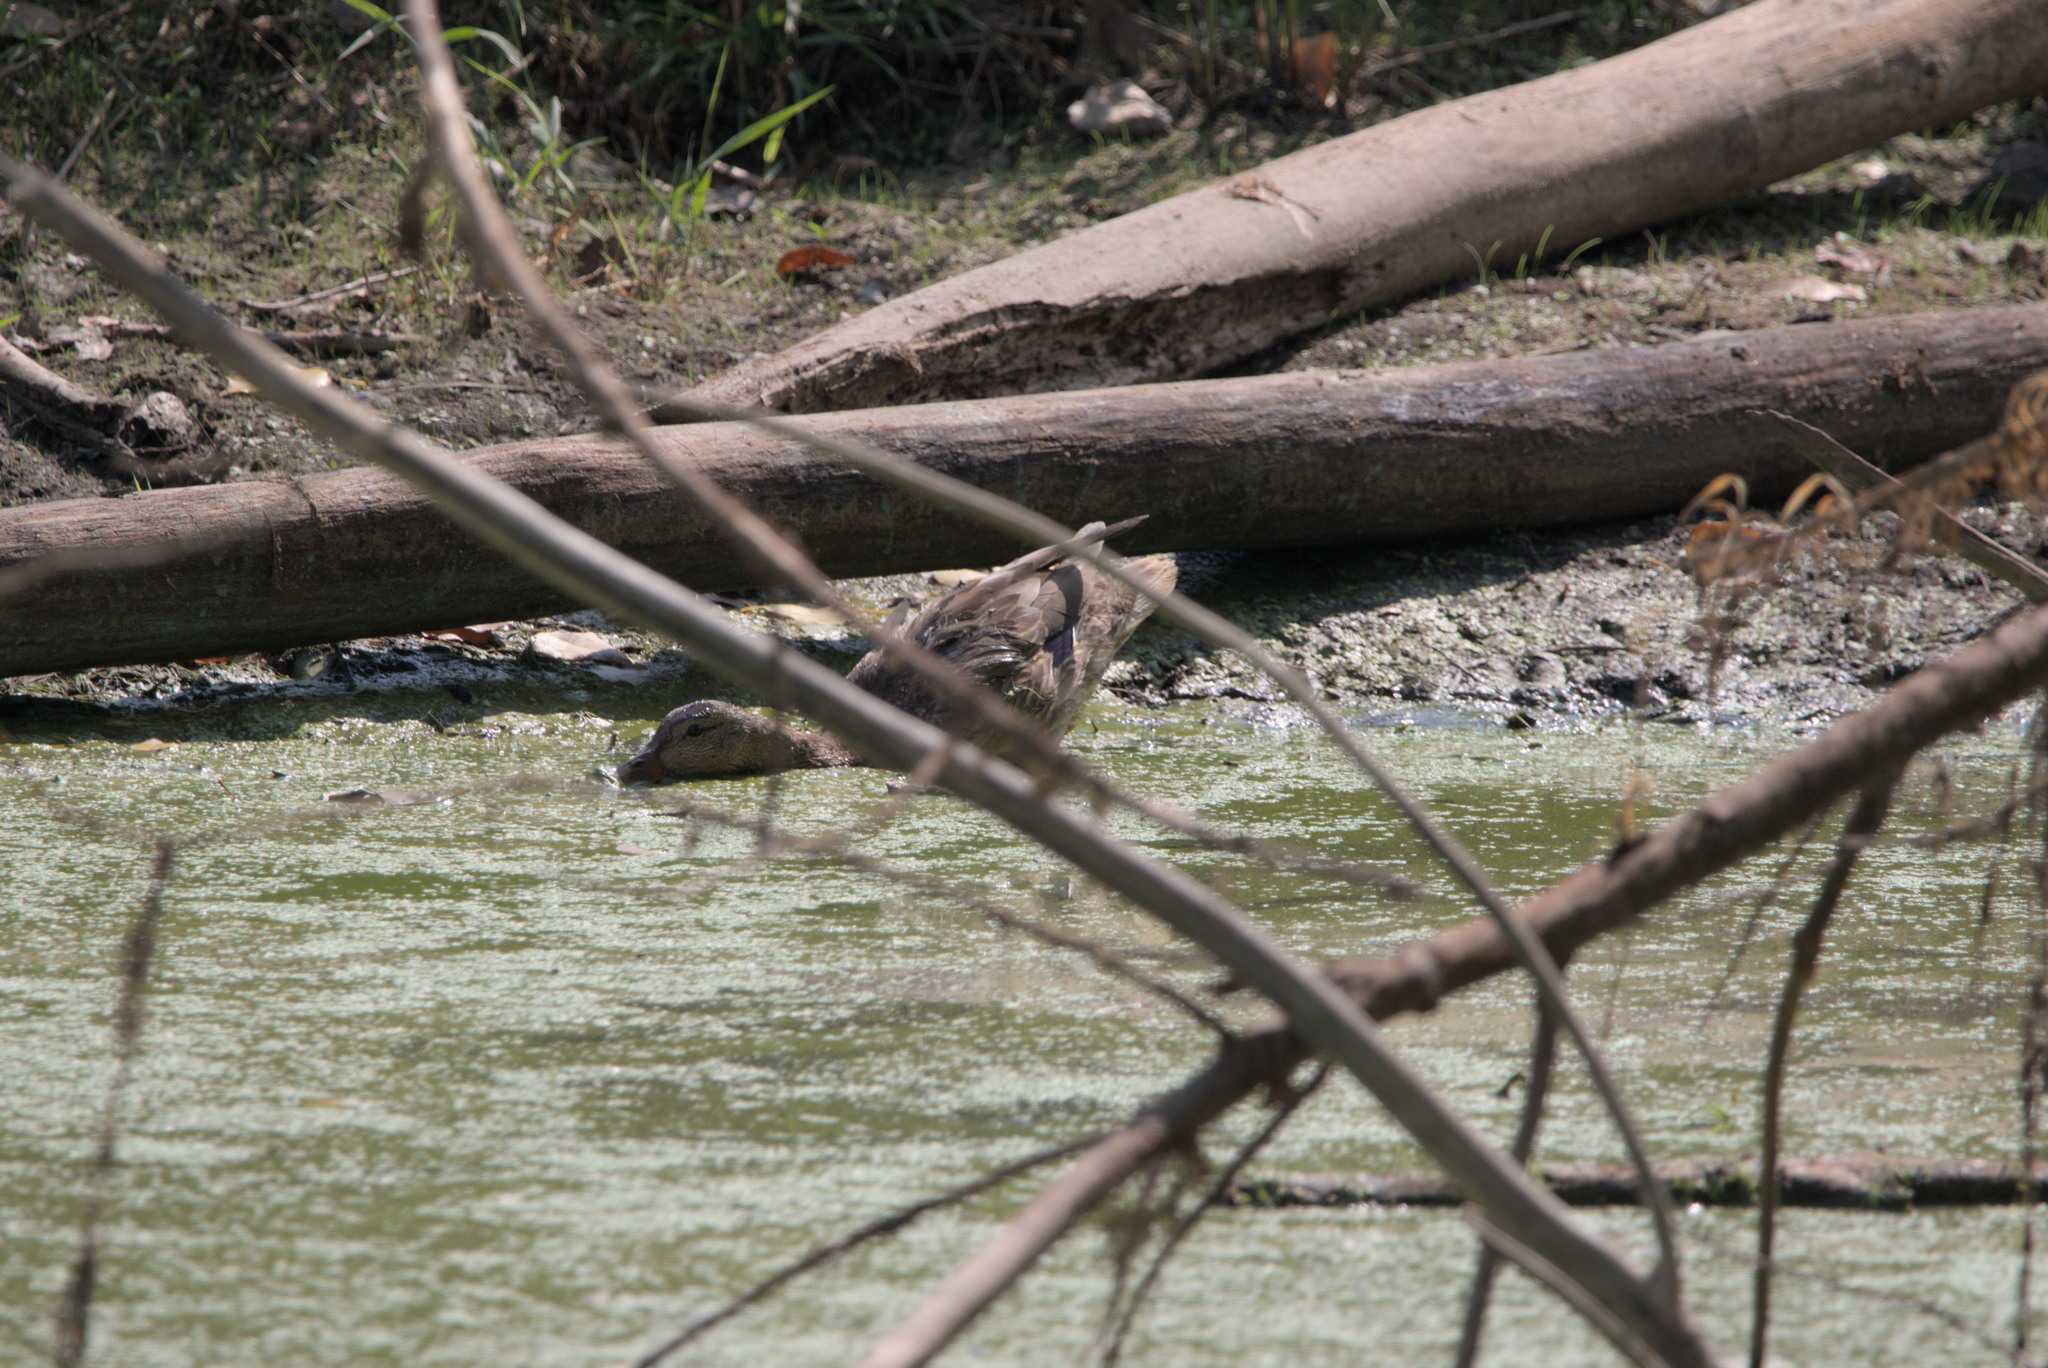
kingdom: Animalia
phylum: Chordata
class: Aves
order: Anseriformes
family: Anatidae
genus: Anas
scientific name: Anas platyrhynchos
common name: Mallard
